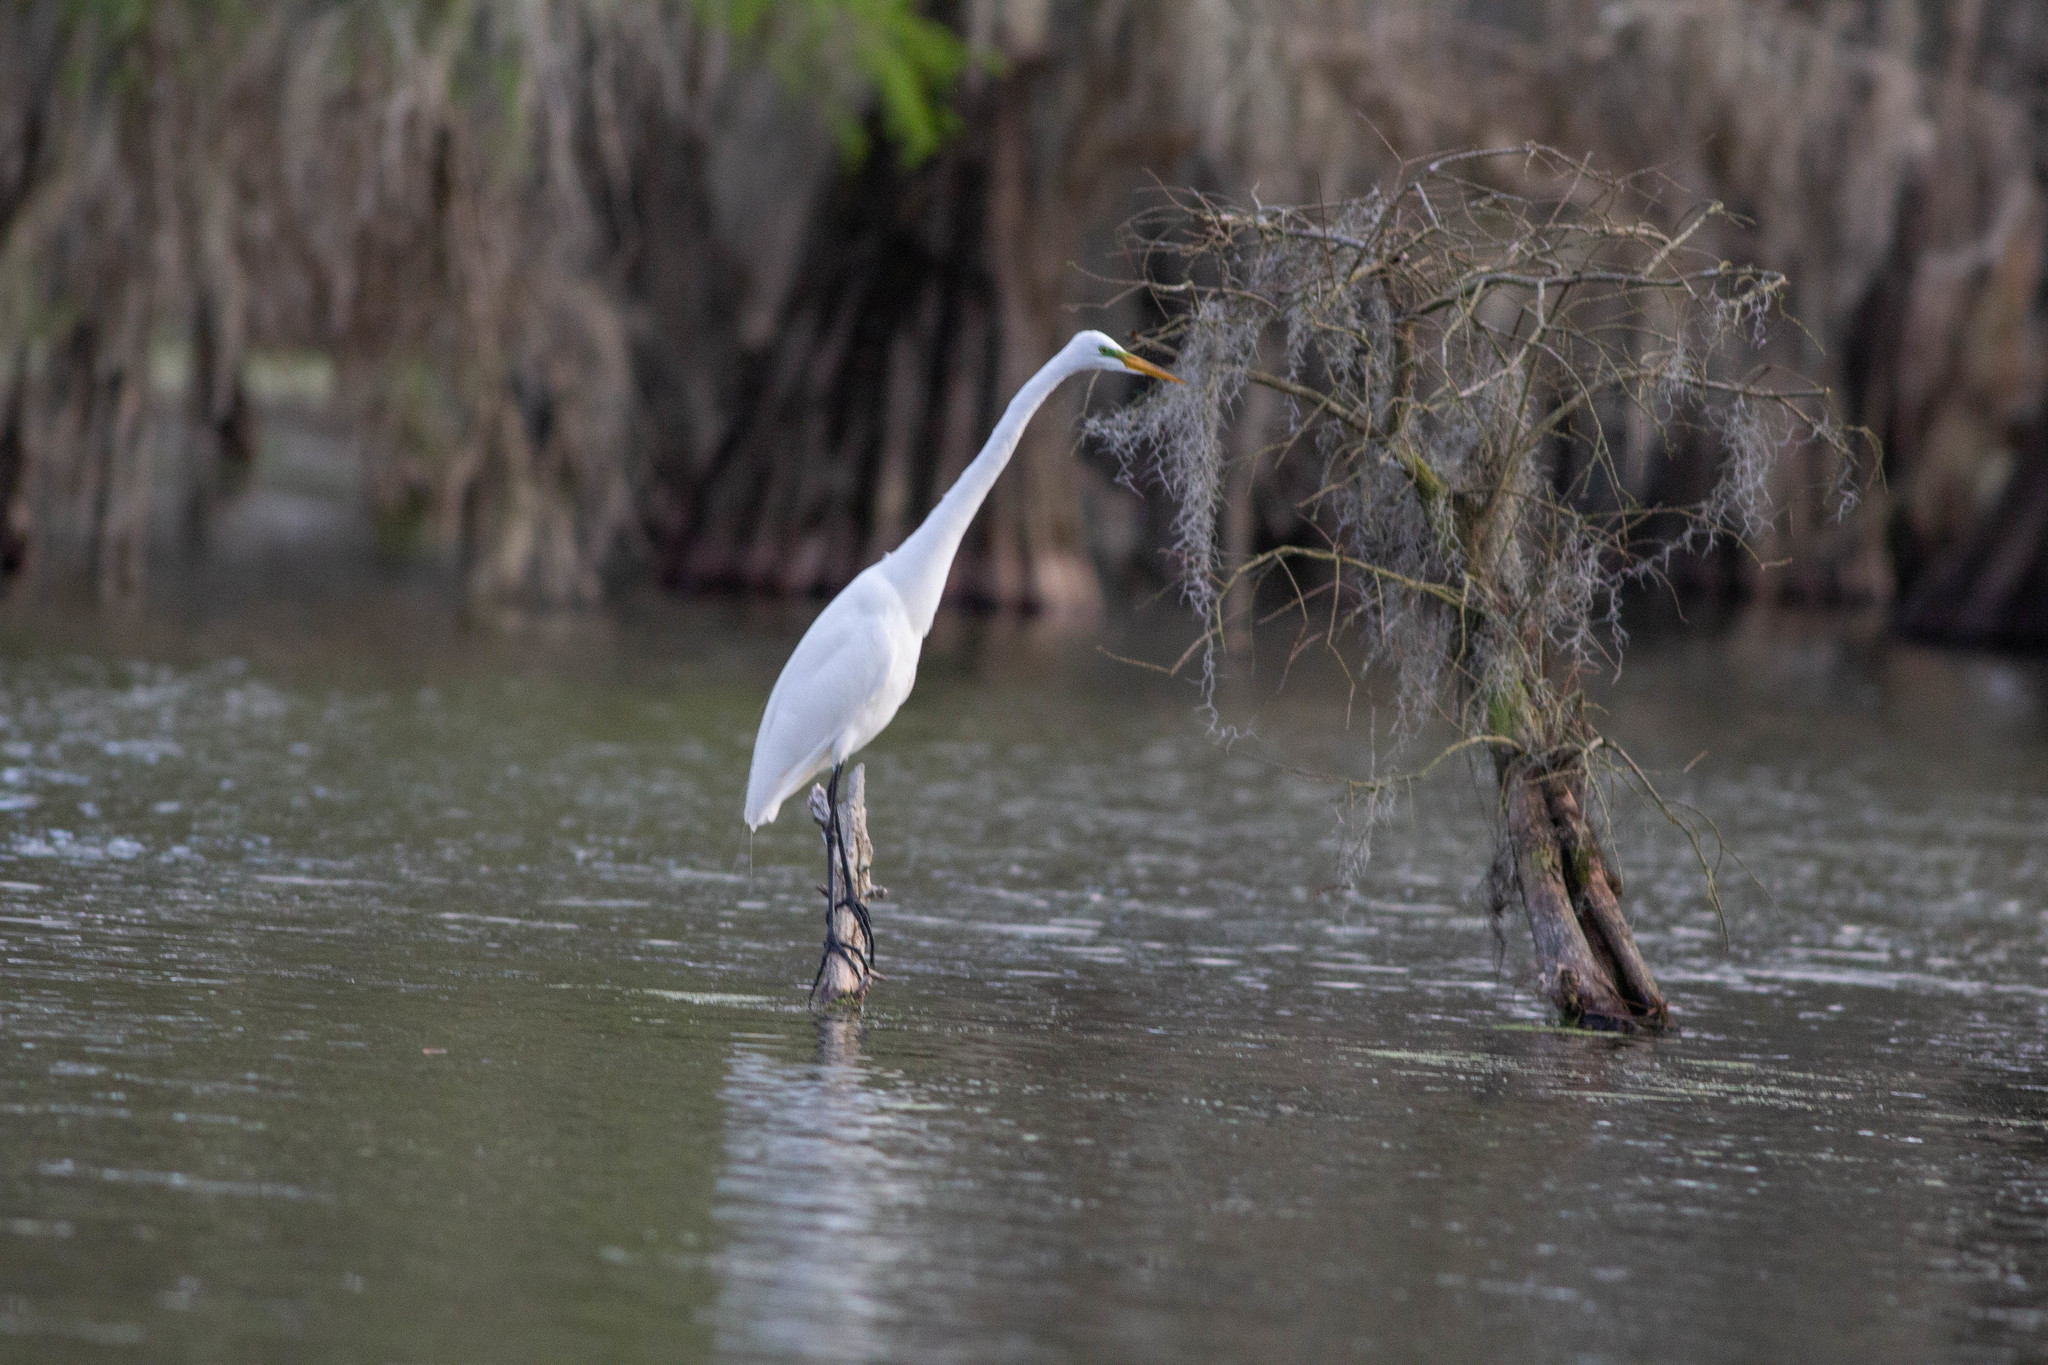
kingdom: Animalia
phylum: Chordata
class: Aves
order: Pelecaniformes
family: Ardeidae
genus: Ardea
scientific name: Ardea alba
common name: Great egret
